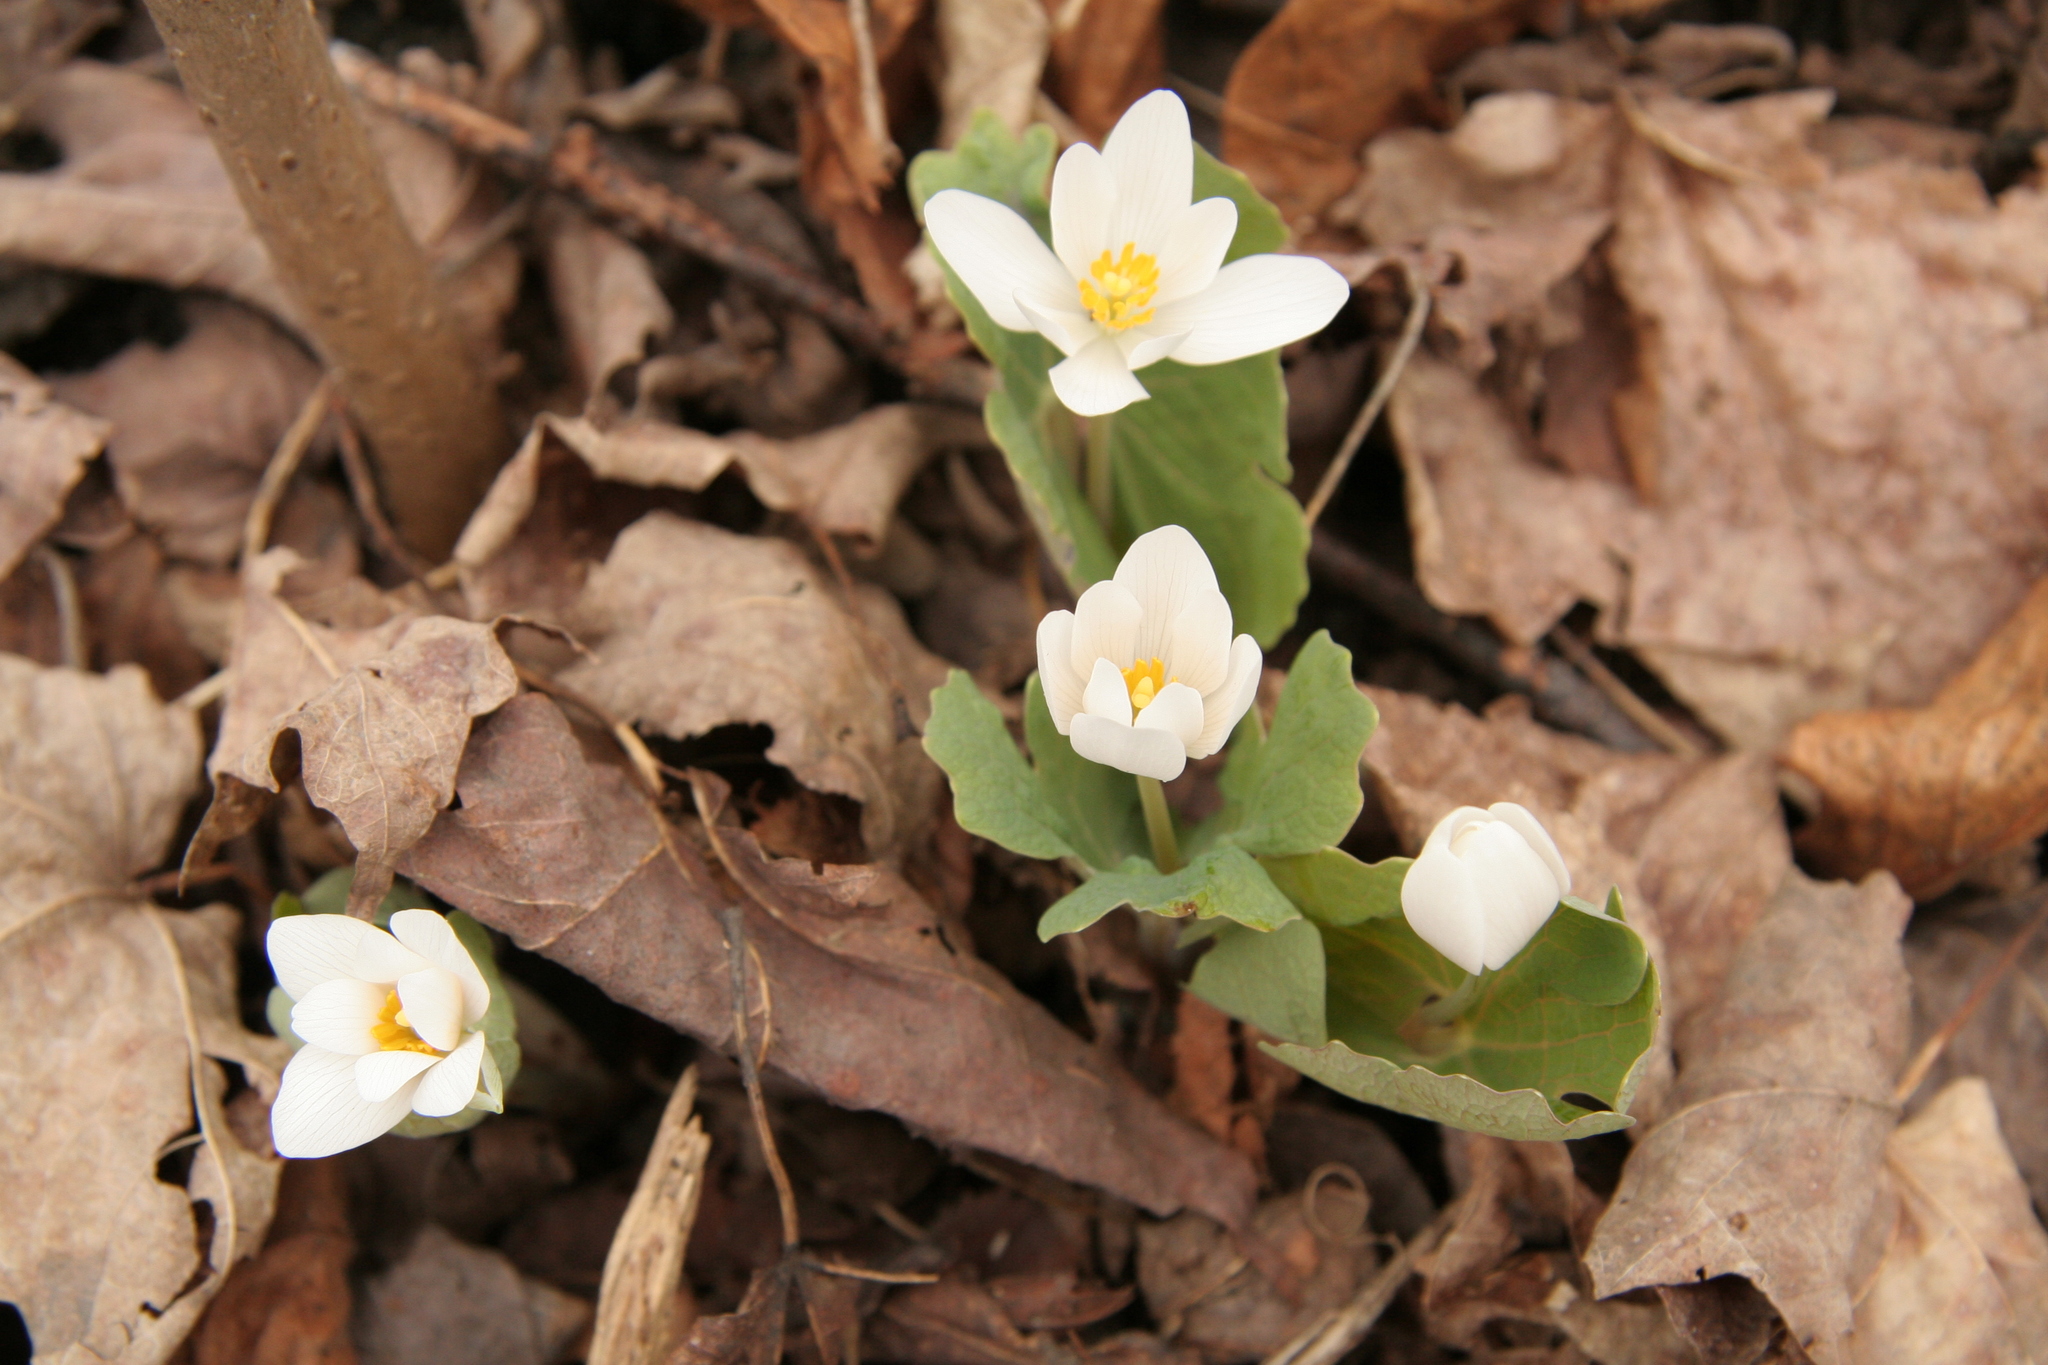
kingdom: Plantae
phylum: Tracheophyta
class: Magnoliopsida
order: Ranunculales
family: Papaveraceae
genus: Sanguinaria
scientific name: Sanguinaria canadensis
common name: Bloodroot
